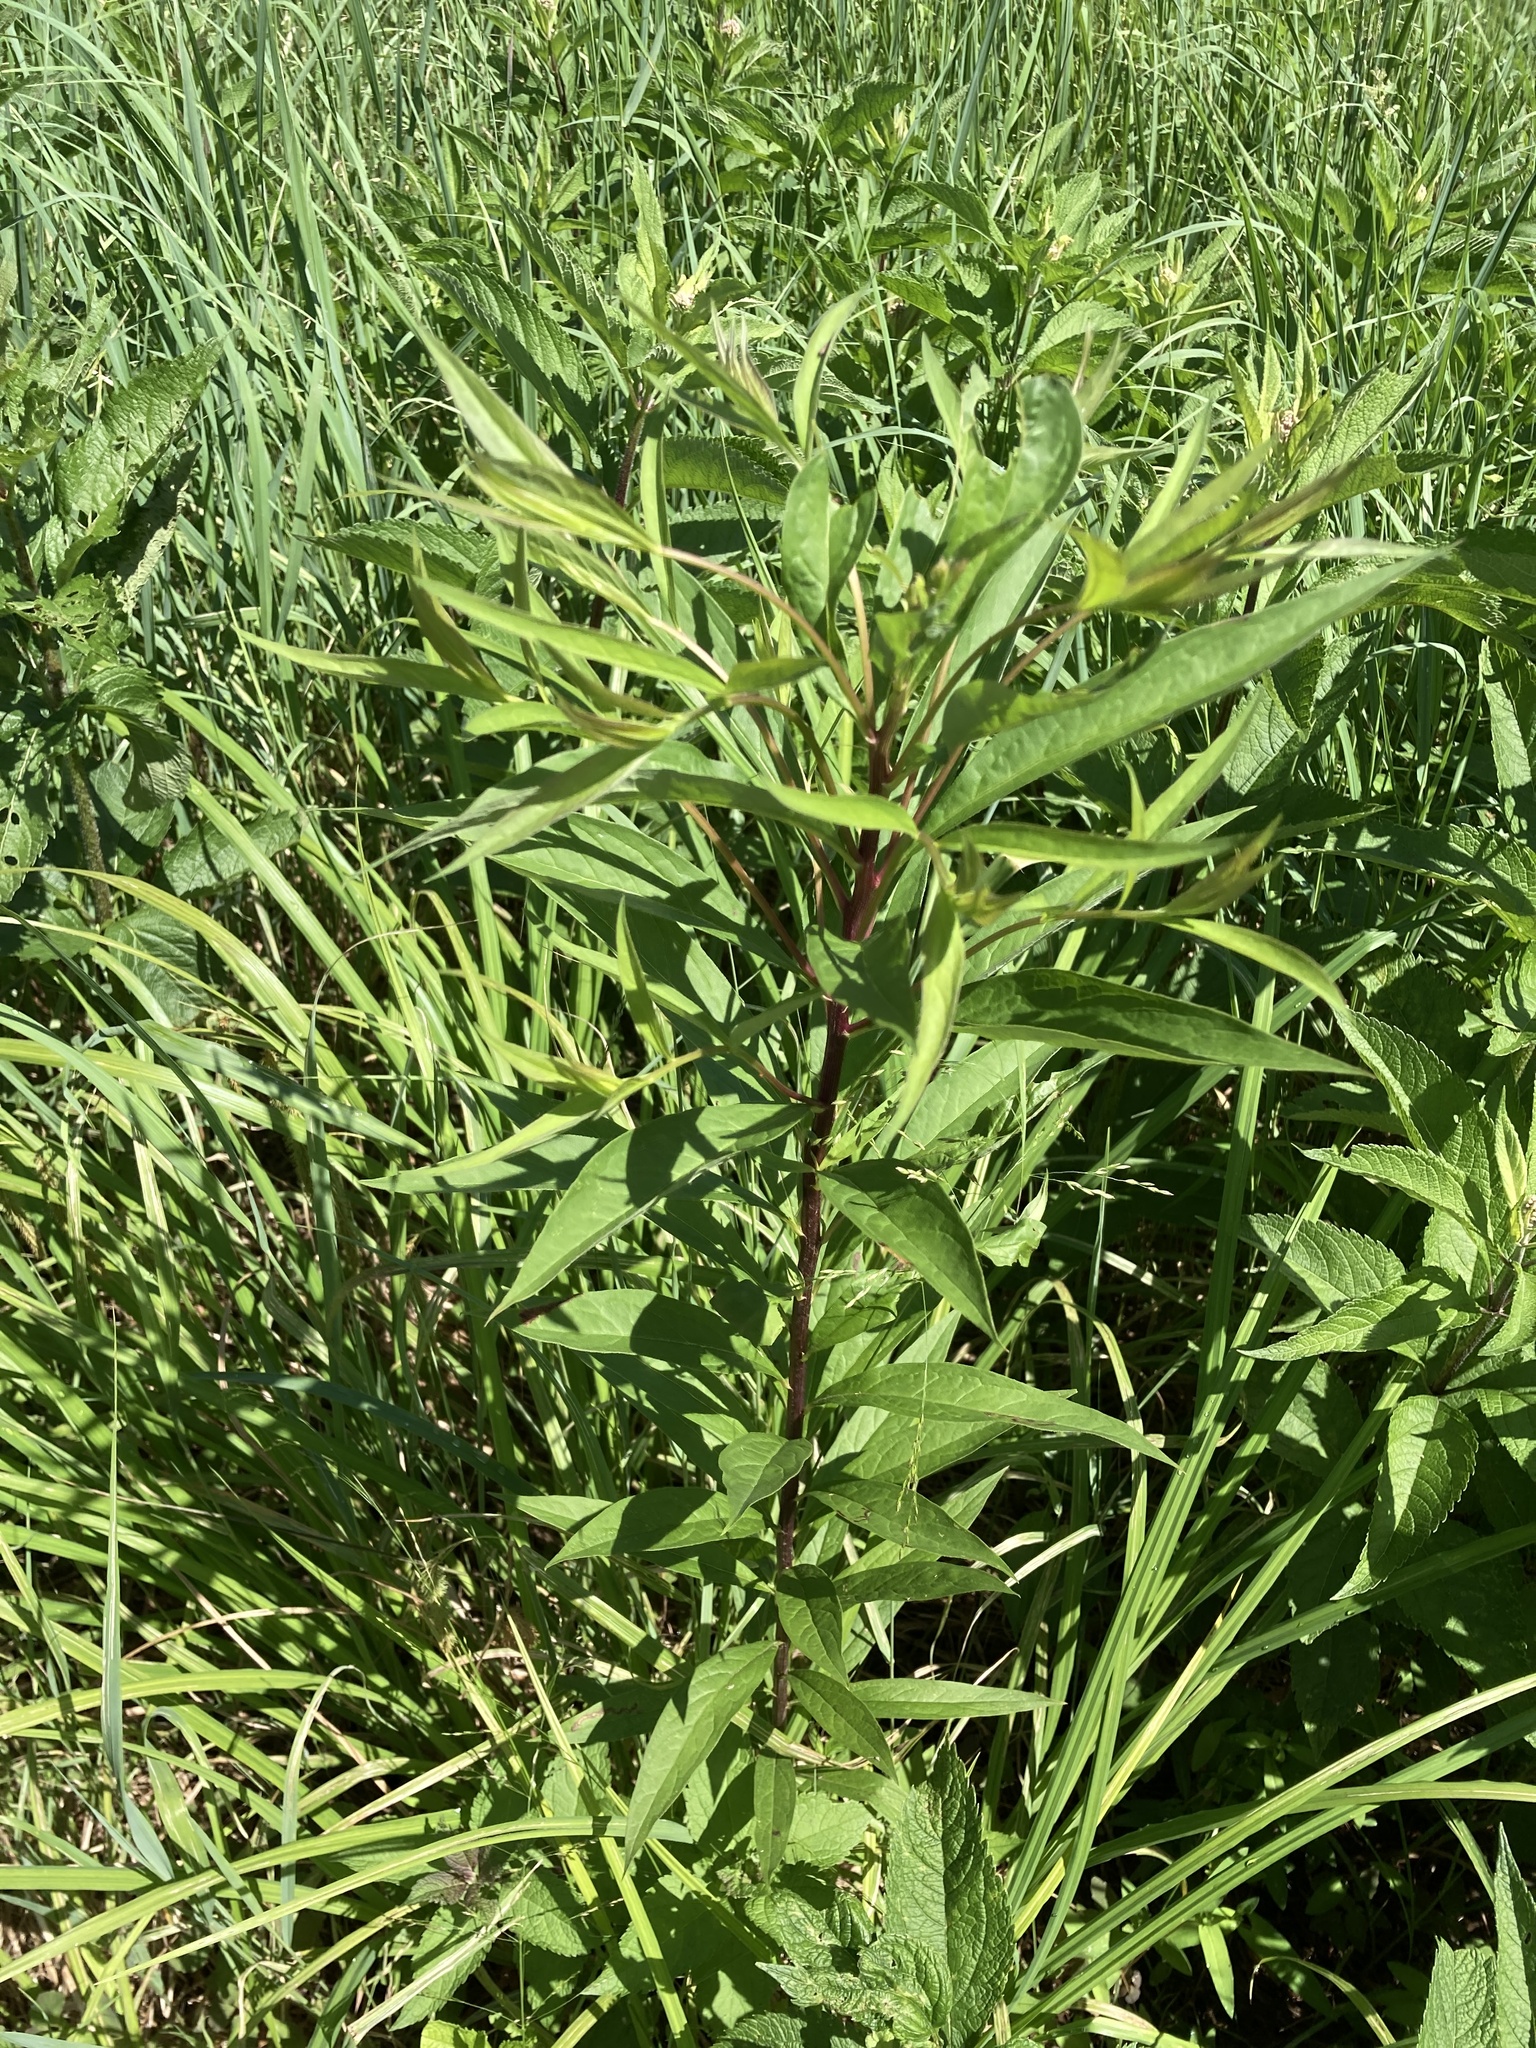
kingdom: Plantae
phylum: Tracheophyta
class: Magnoliopsida
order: Asterales
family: Asteraceae
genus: Doellingeria
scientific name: Doellingeria umbellata
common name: Flat-top white aster
